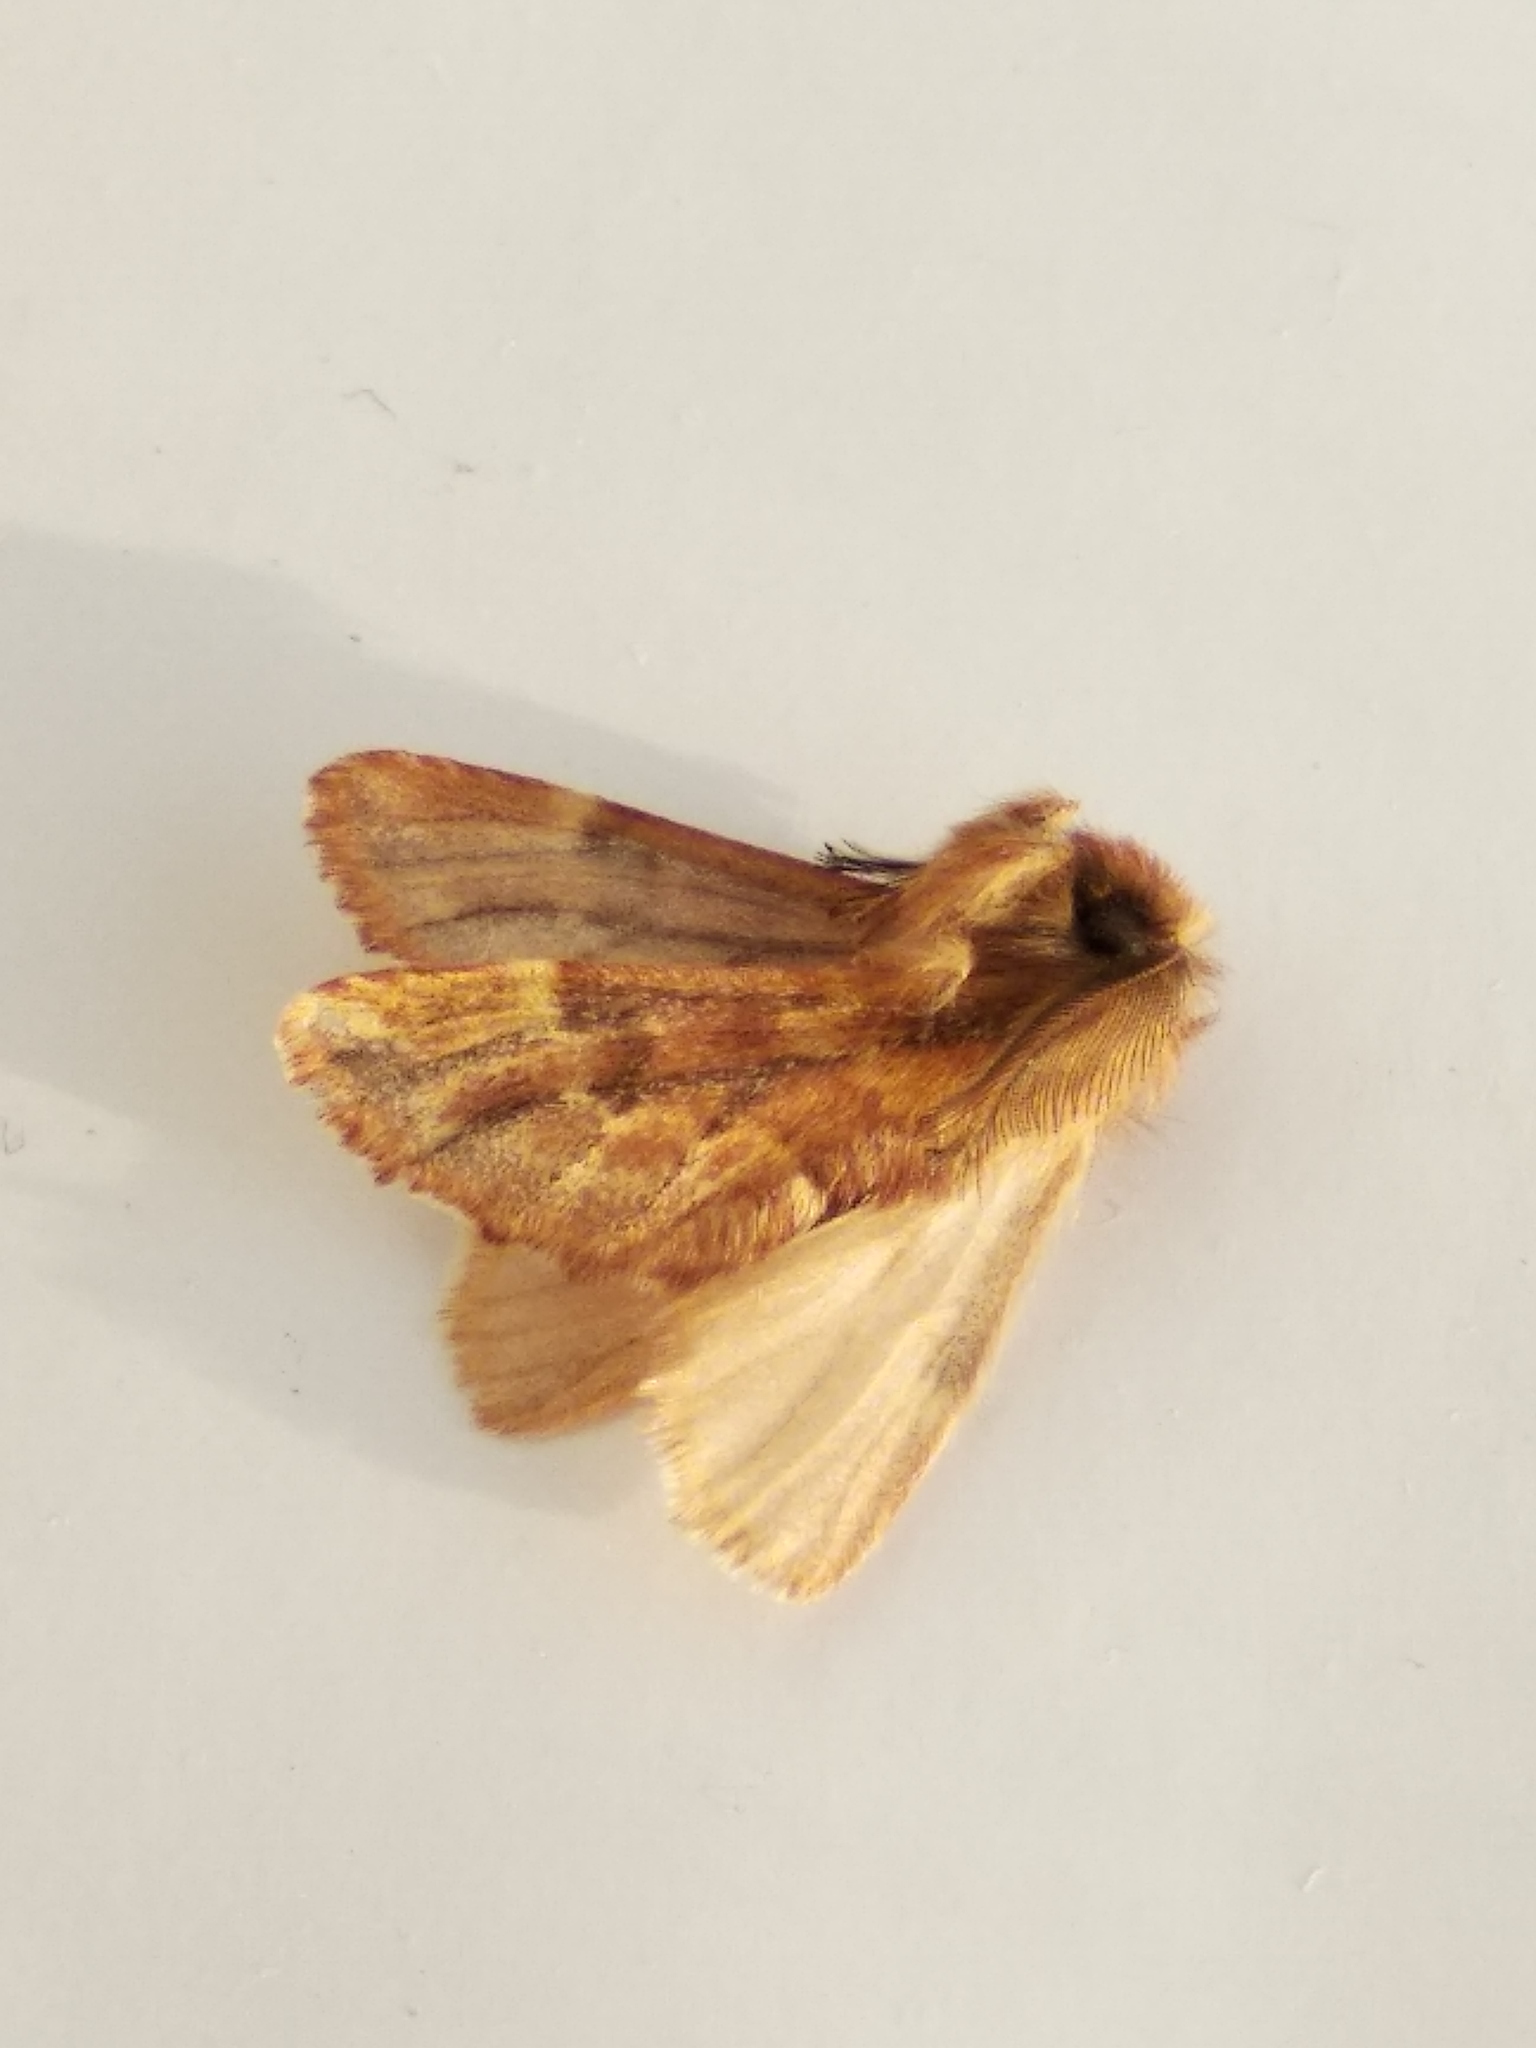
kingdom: Animalia
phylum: Arthropoda
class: Insecta
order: Lepidoptera
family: Notodontidae
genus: Ptilophora
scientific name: Ptilophora plumigera
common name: Plumed prominent
